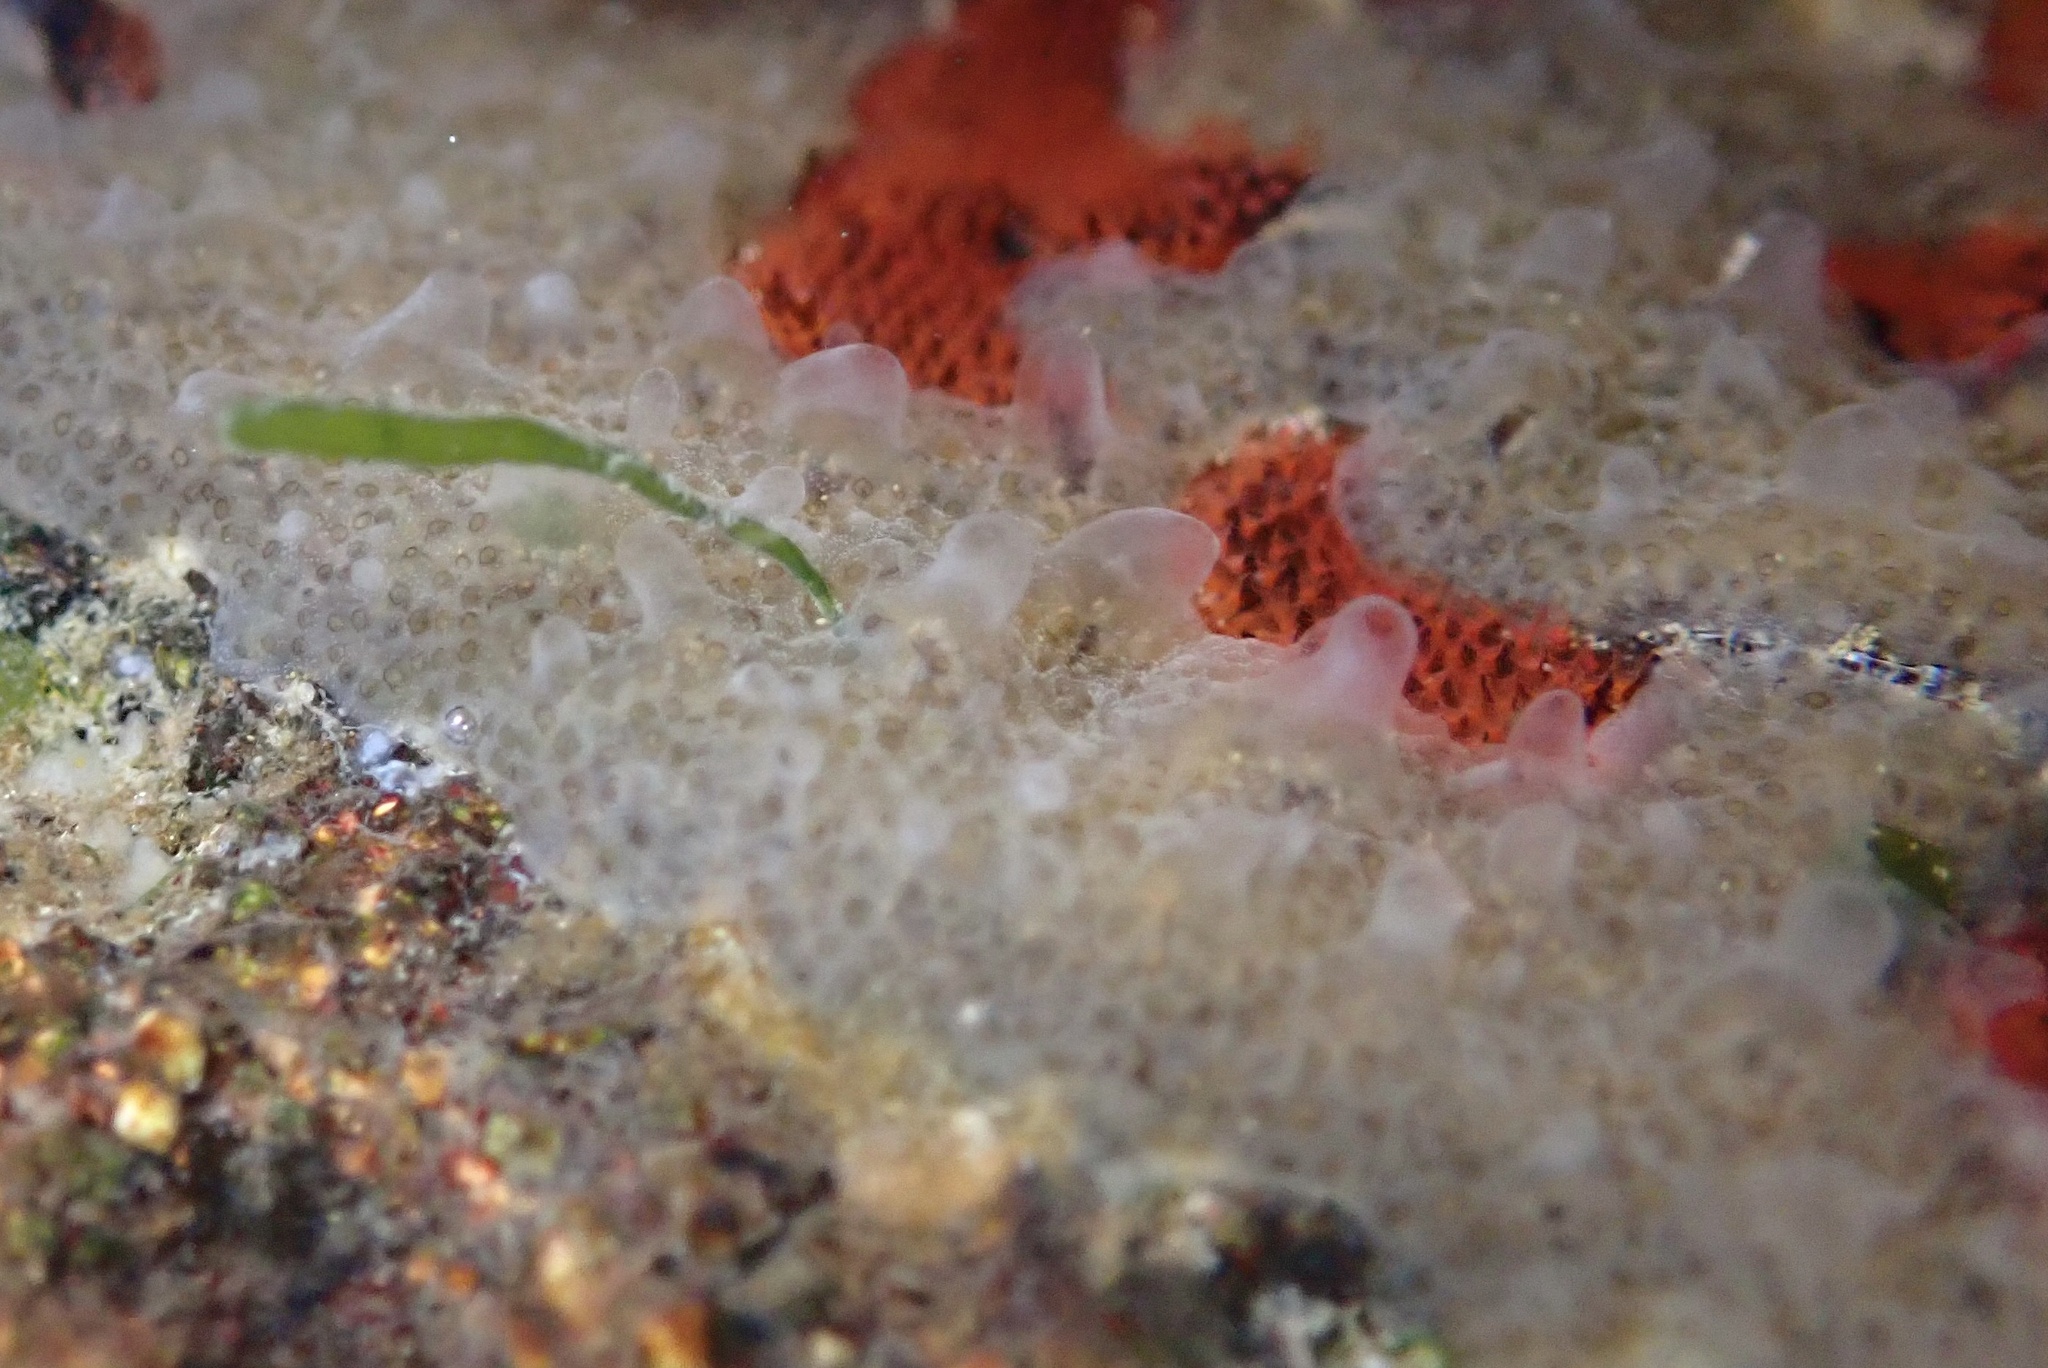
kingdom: Animalia
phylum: Chordata
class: Ascidiacea
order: Aplousobranchia
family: Didemnidae
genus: Diplosoma
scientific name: Diplosoma listerianum
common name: Compound sea squirt
